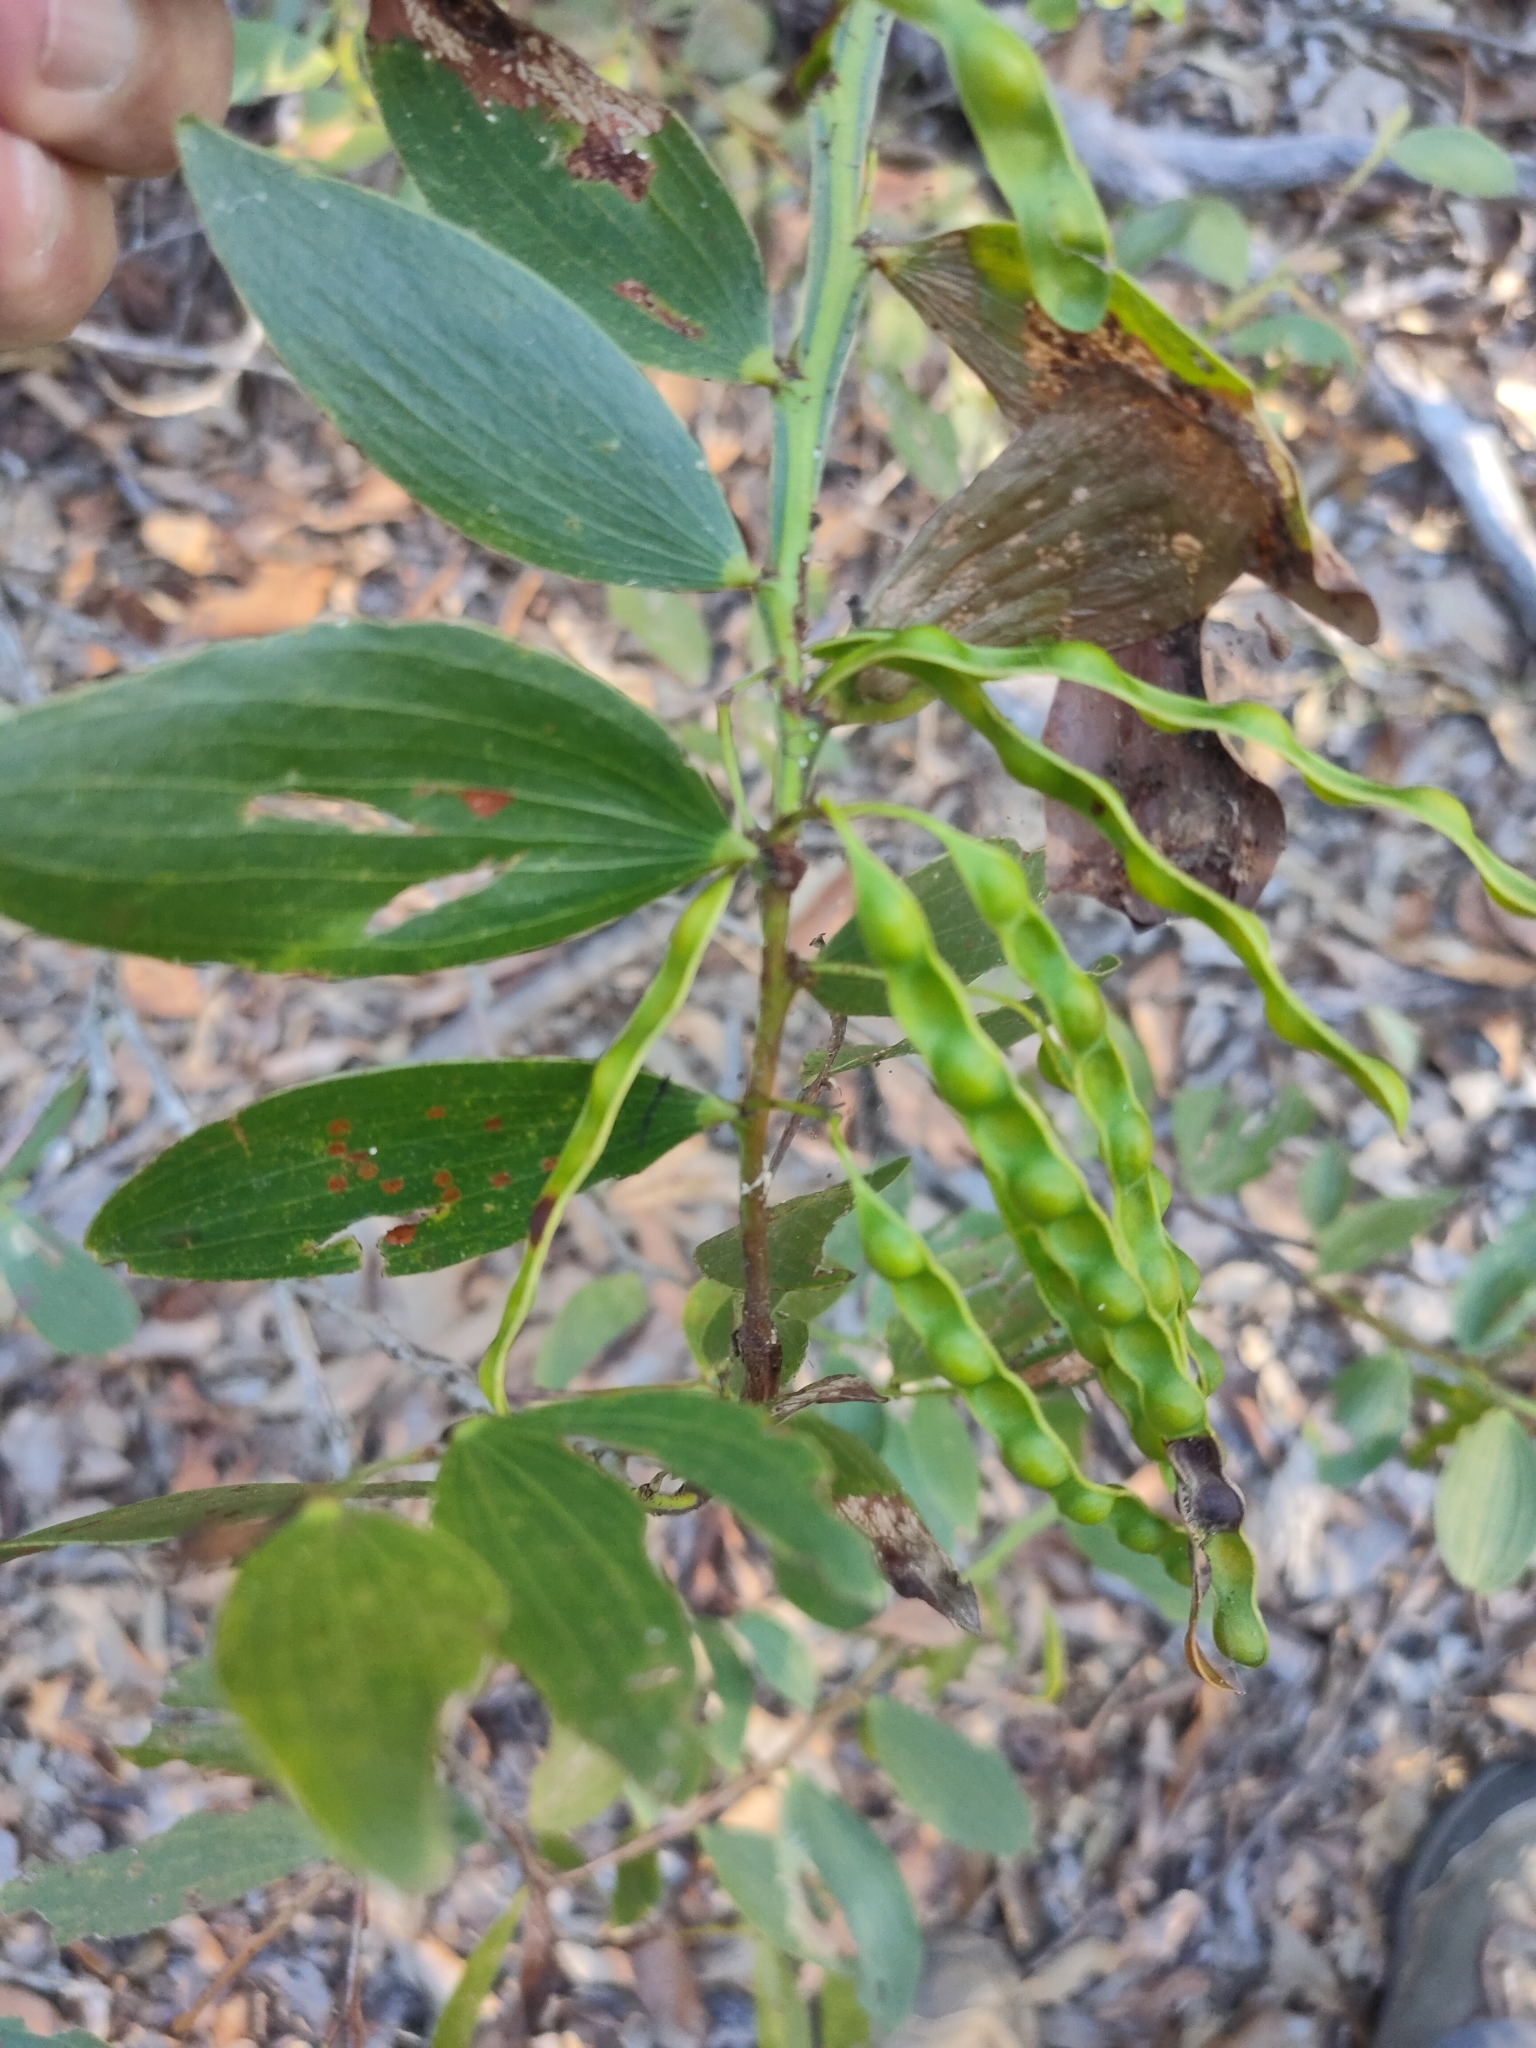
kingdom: Plantae
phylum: Tracheophyta
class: Magnoliopsida
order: Fabales
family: Fabaceae
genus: Acacia
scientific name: Acacia complanata
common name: Flat-stemmed wattle
